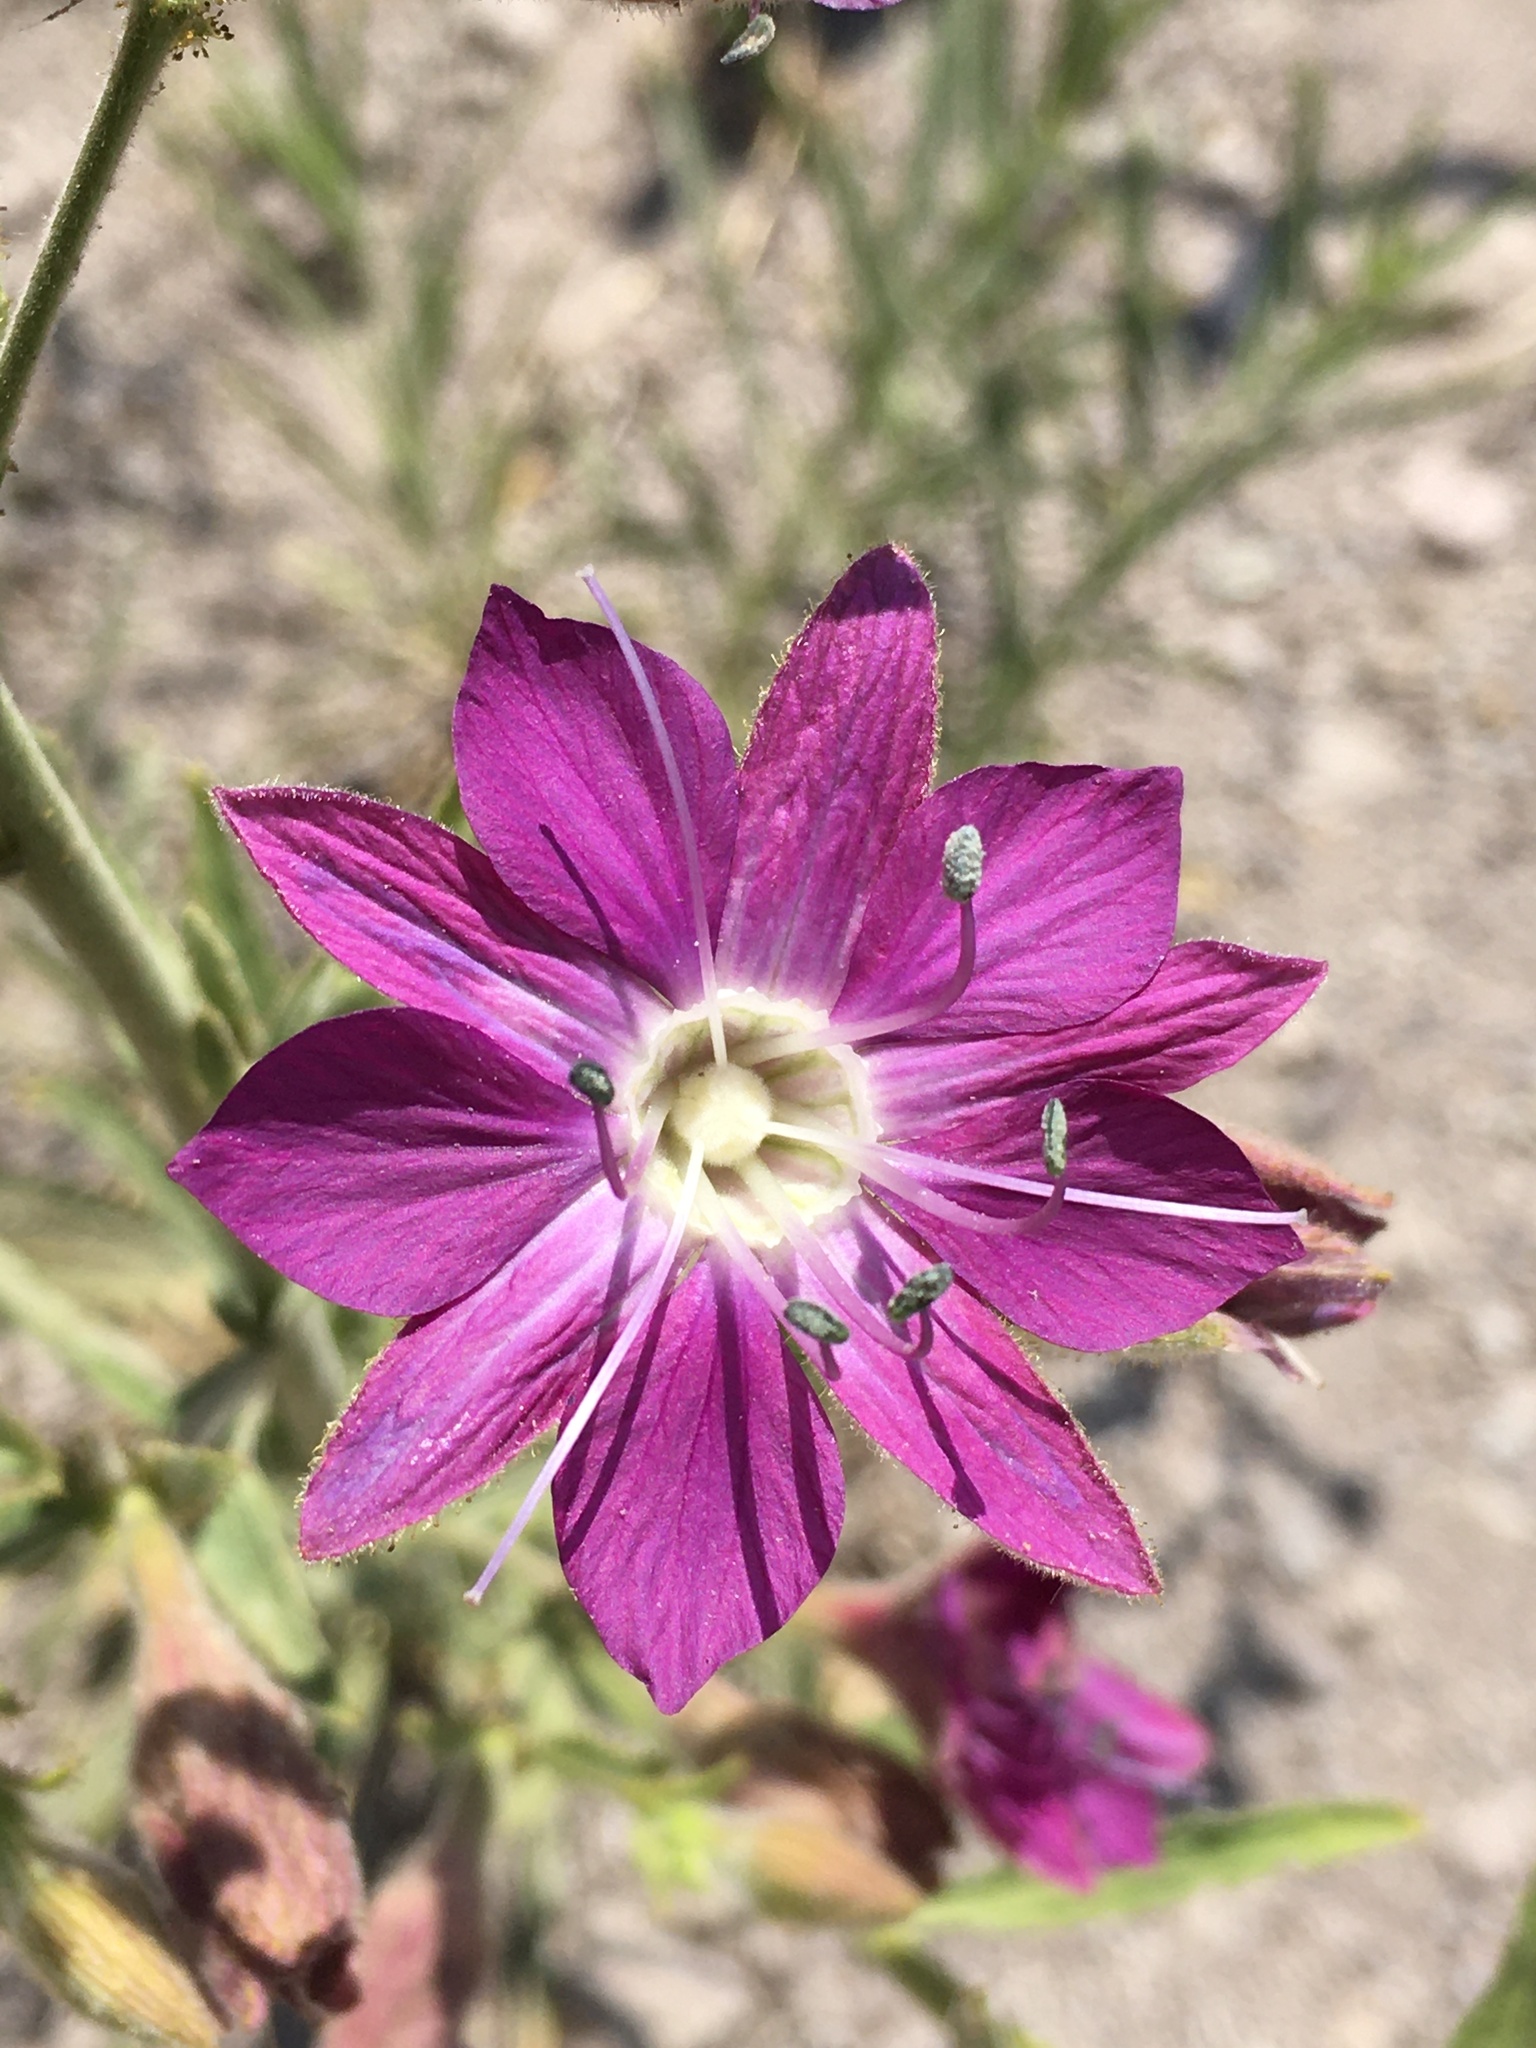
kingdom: Plantae
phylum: Tracheophyta
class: Magnoliopsida
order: Malpighiales
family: Malesherbiaceae
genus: Malesherbia
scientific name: Malesherbia linearifolia
